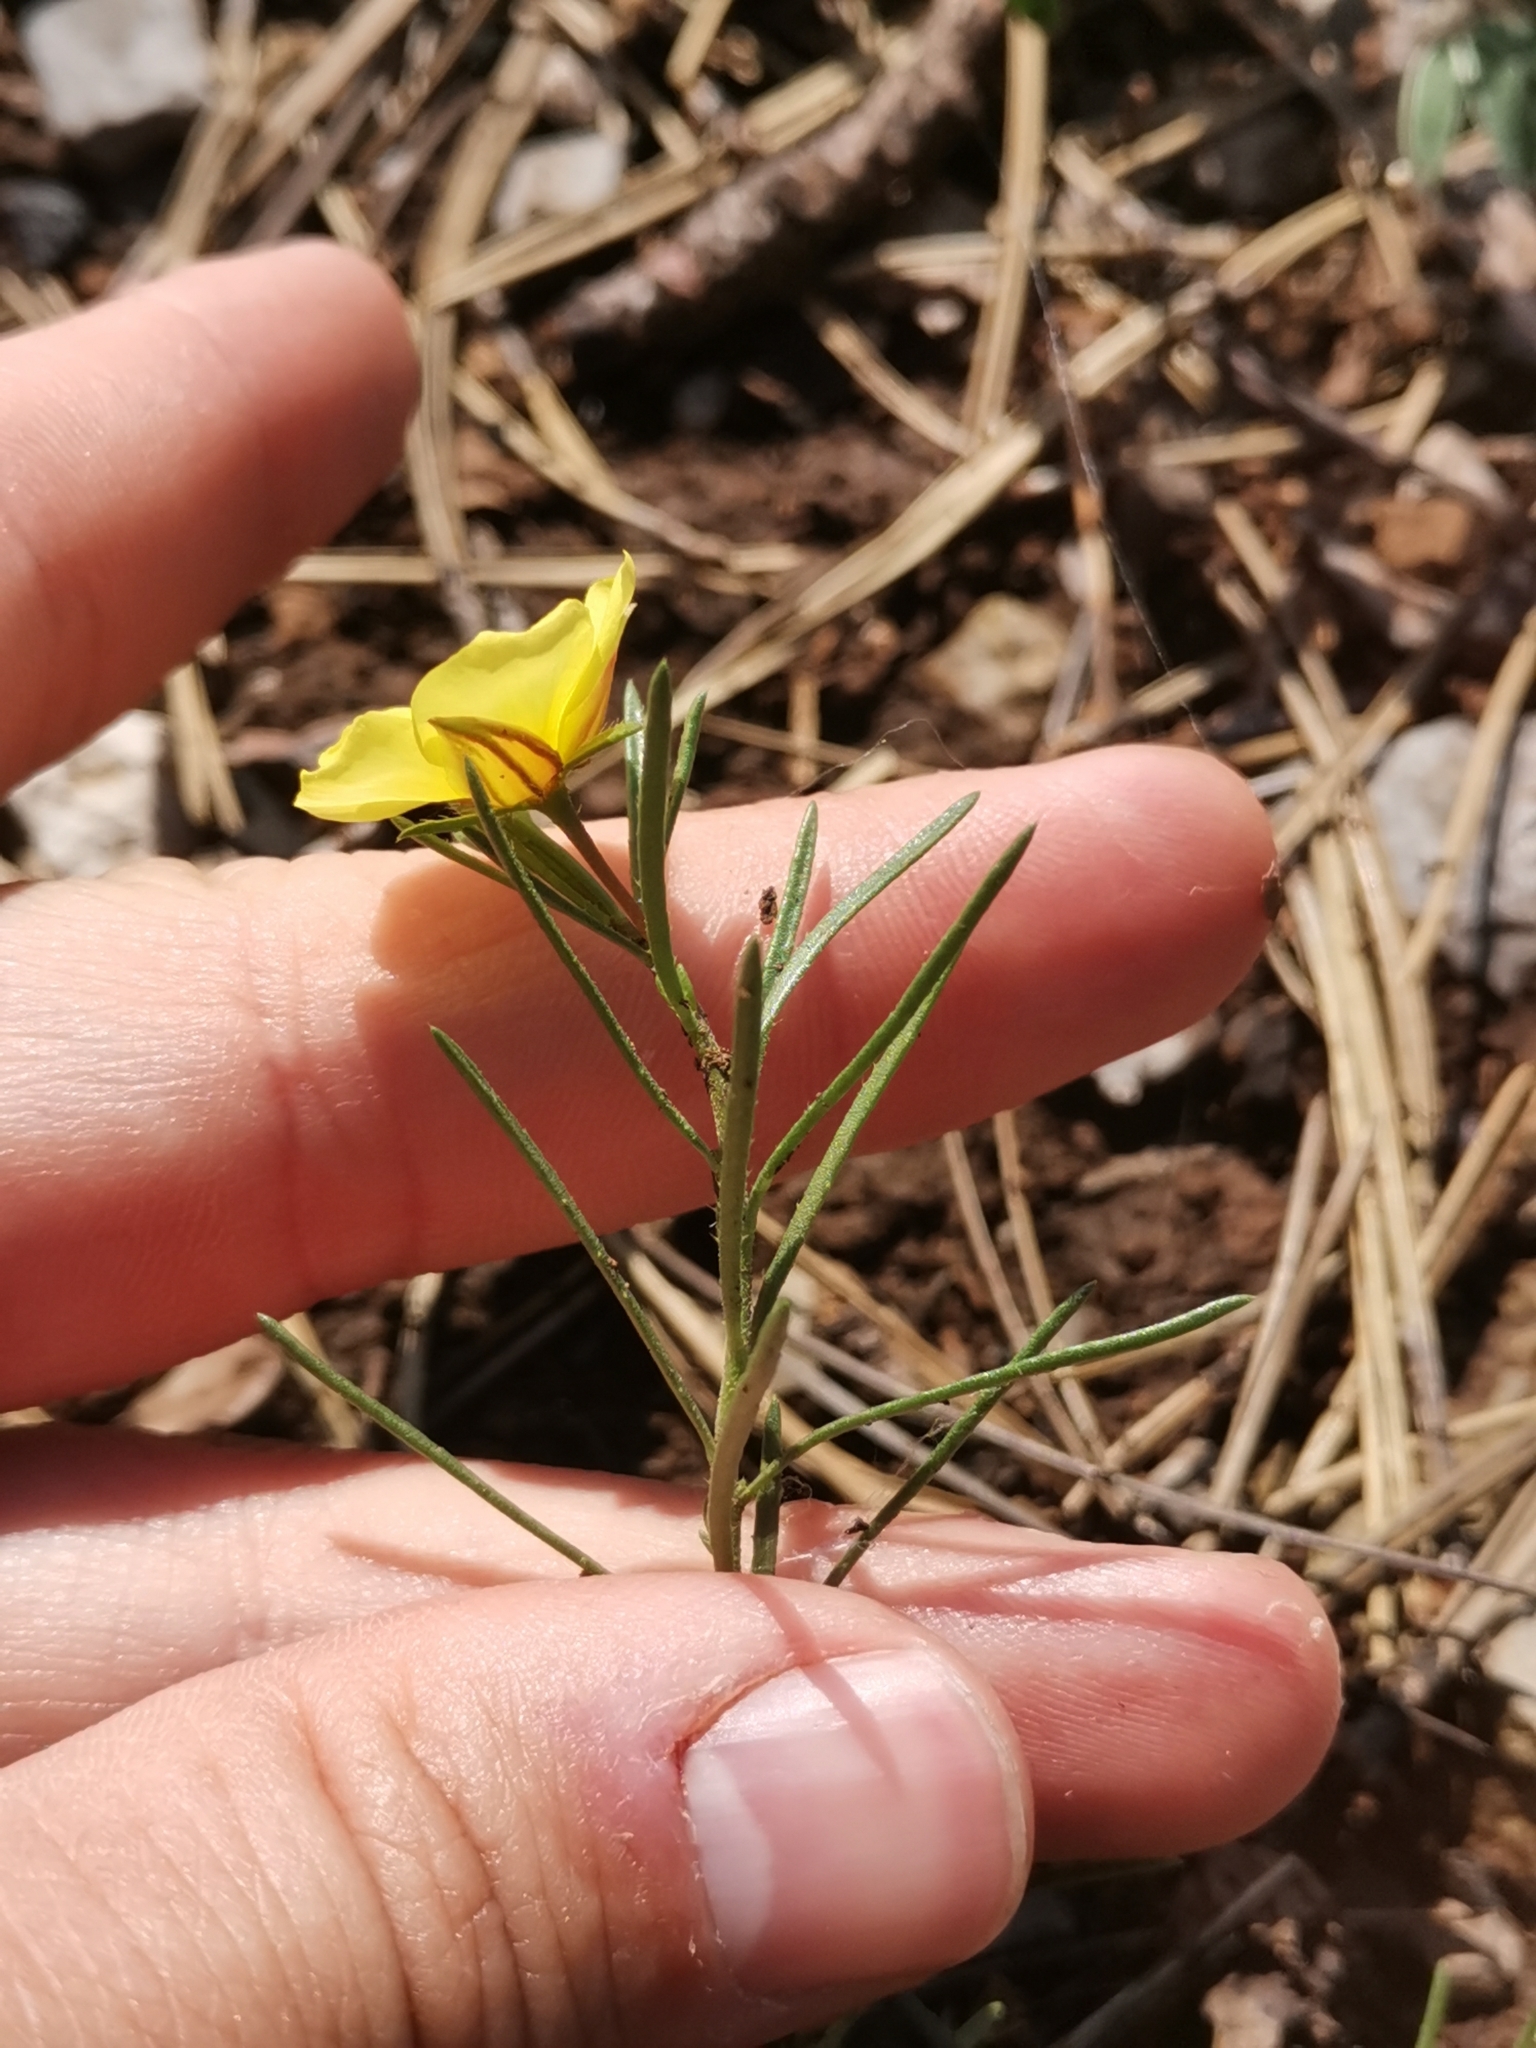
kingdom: Plantae
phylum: Tracheophyta
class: Magnoliopsida
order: Malvales
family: Cistaceae
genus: Fumana
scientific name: Fumana procumbens
